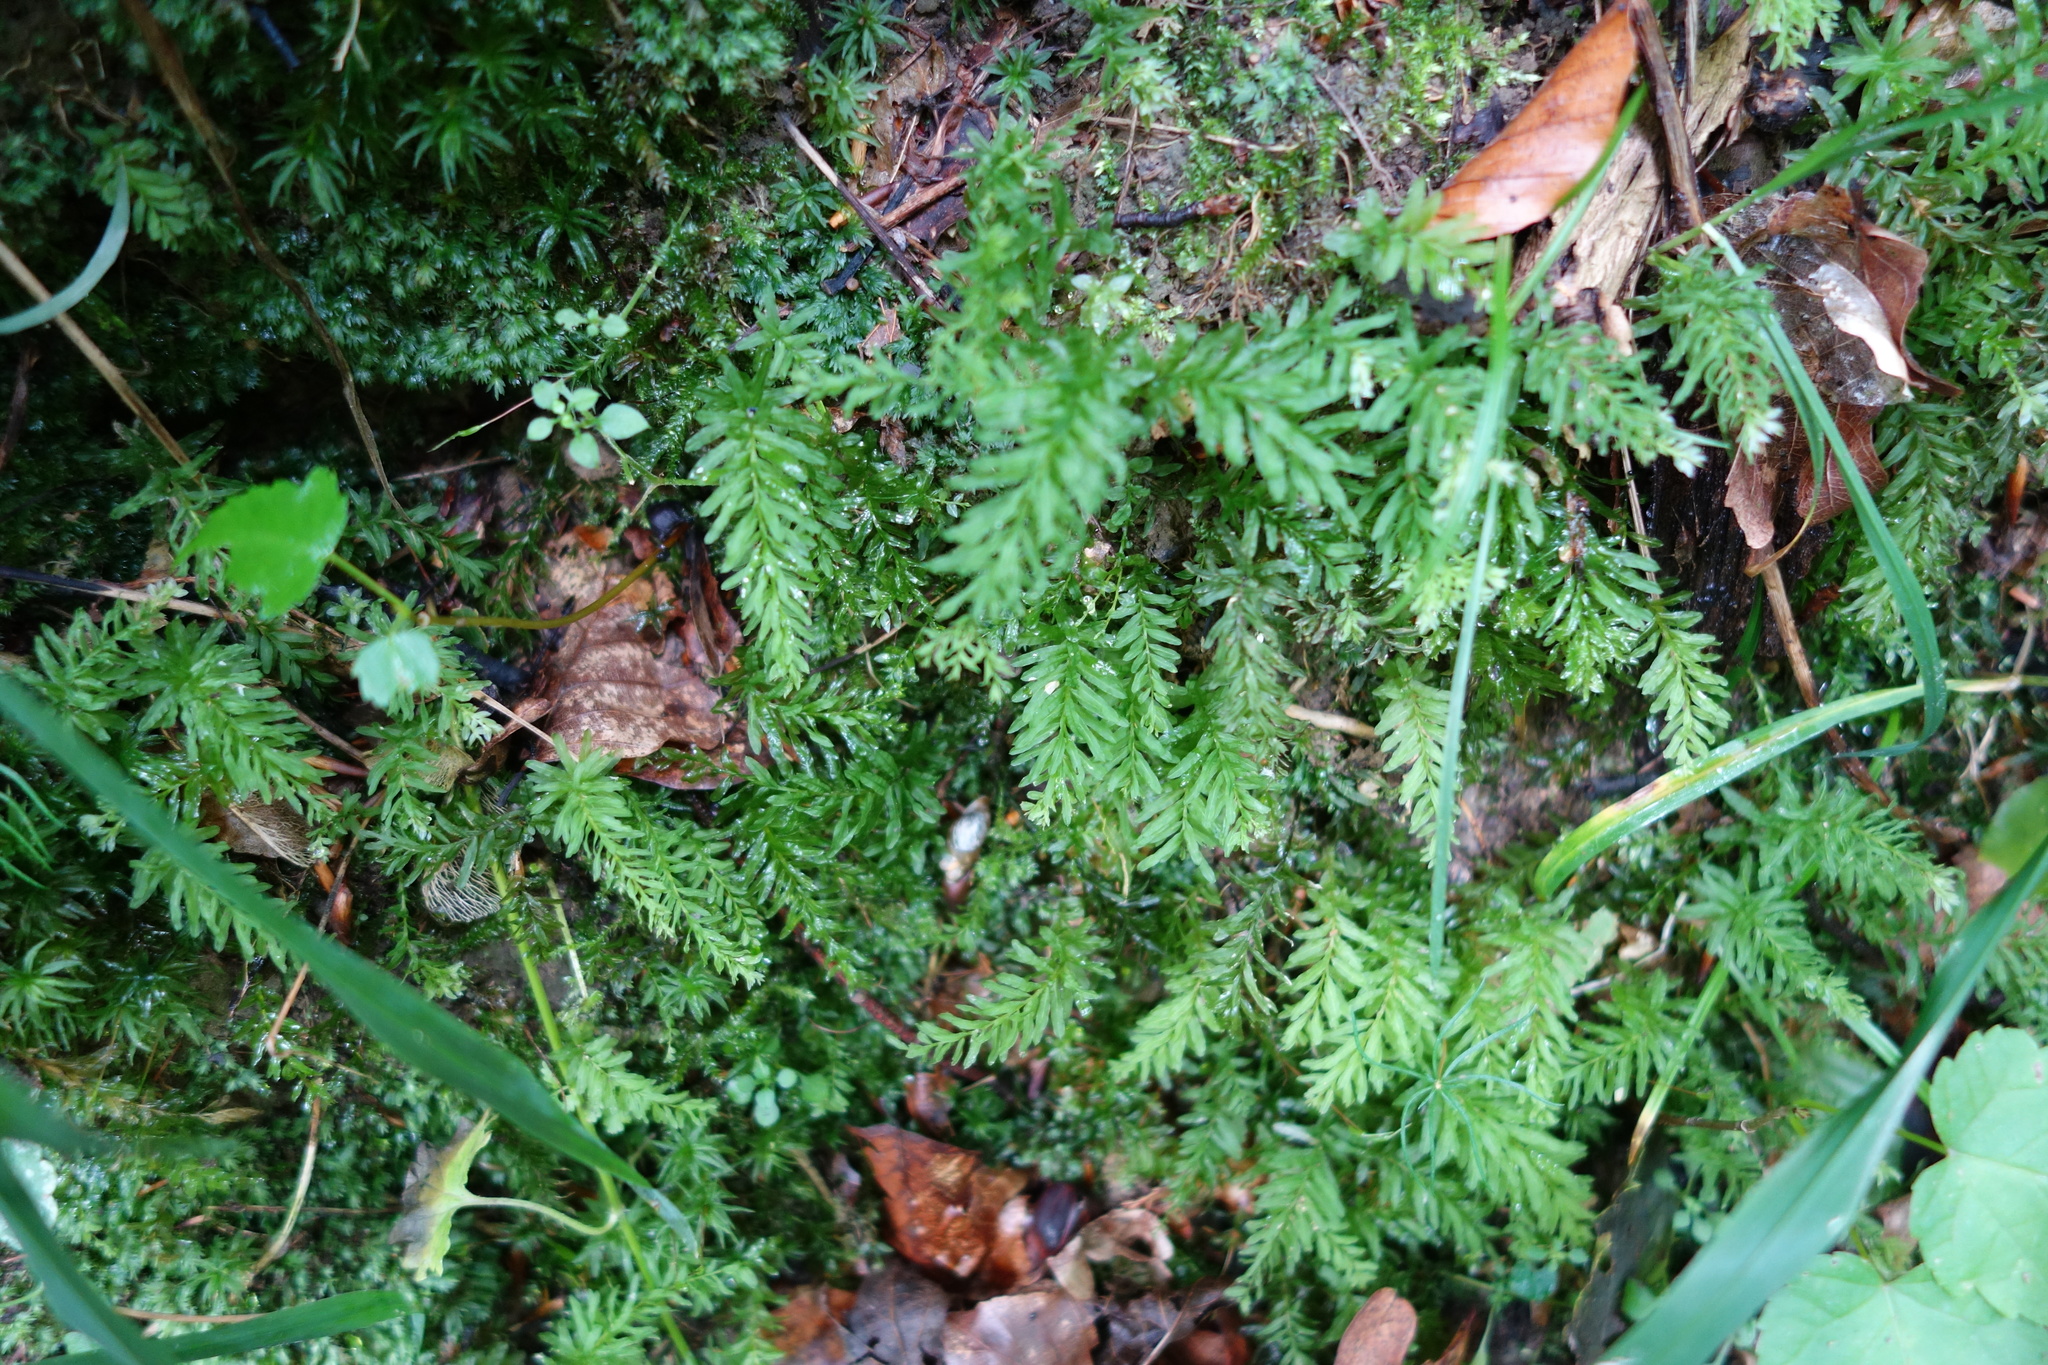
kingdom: Plantae
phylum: Bryophyta
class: Bryopsida
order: Bryales
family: Mniaceae
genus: Plagiomnium
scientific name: Plagiomnium undulatum
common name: Hart's-tongue thyme-moss
